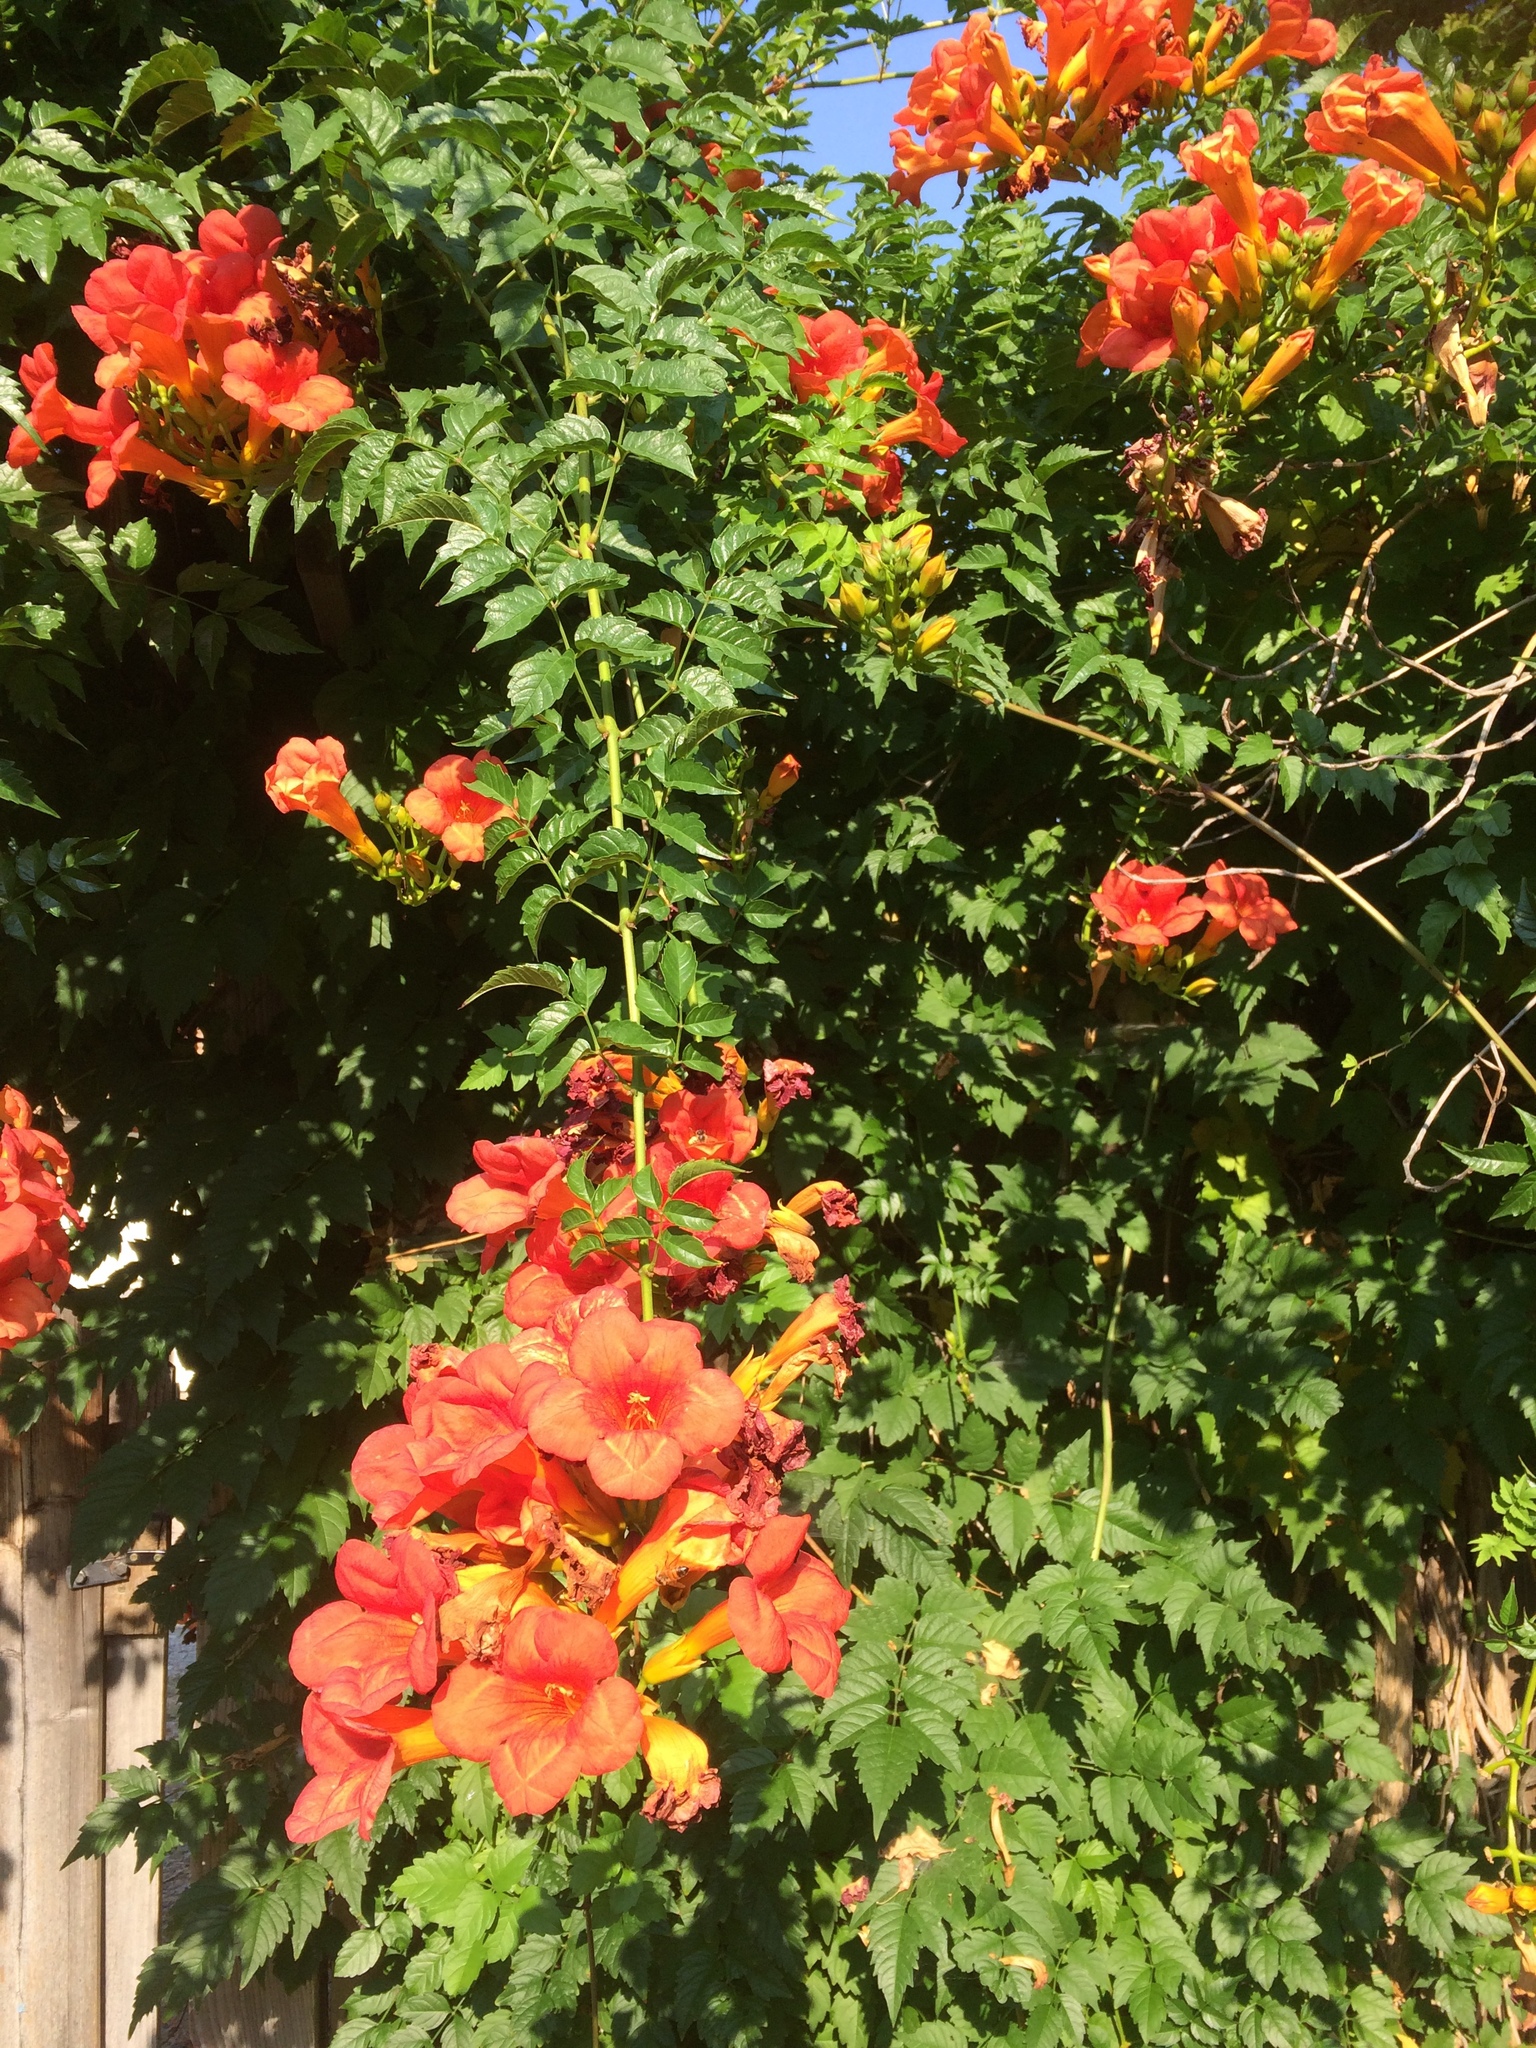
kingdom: Plantae
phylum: Tracheophyta
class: Magnoliopsida
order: Lamiales
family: Bignoniaceae
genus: Campsis
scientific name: Campsis radicans
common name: Trumpet-creeper
